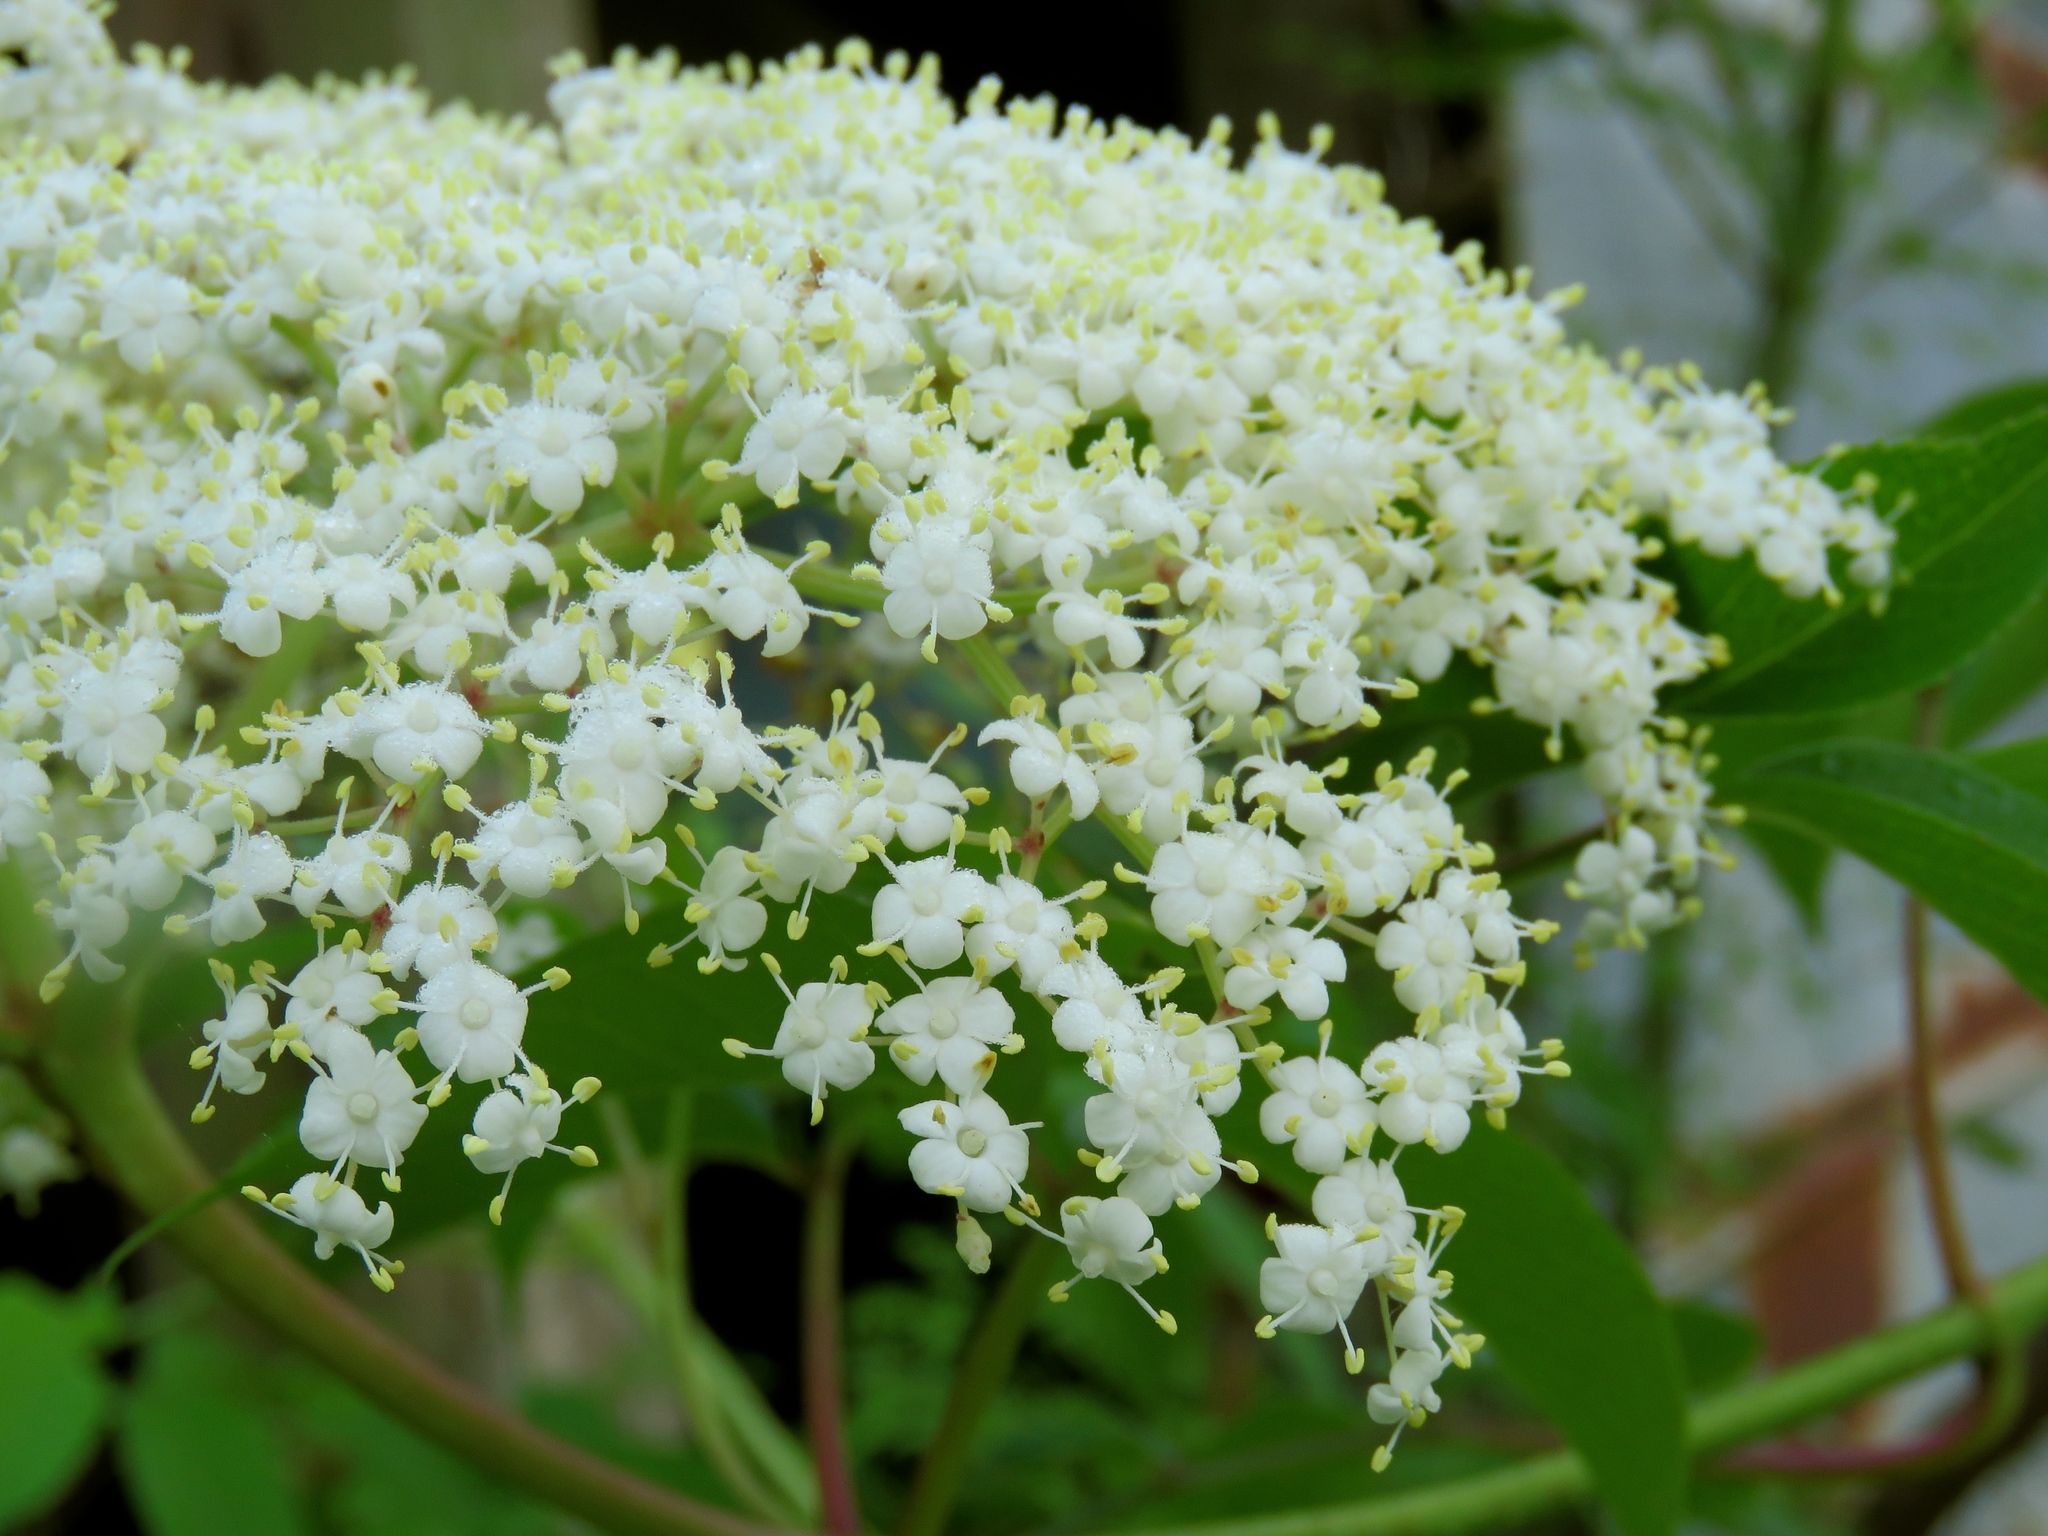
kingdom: Plantae
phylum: Tracheophyta
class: Magnoliopsida
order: Dipsacales
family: Viburnaceae
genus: Sambucus
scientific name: Sambucus canadensis
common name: American elder
